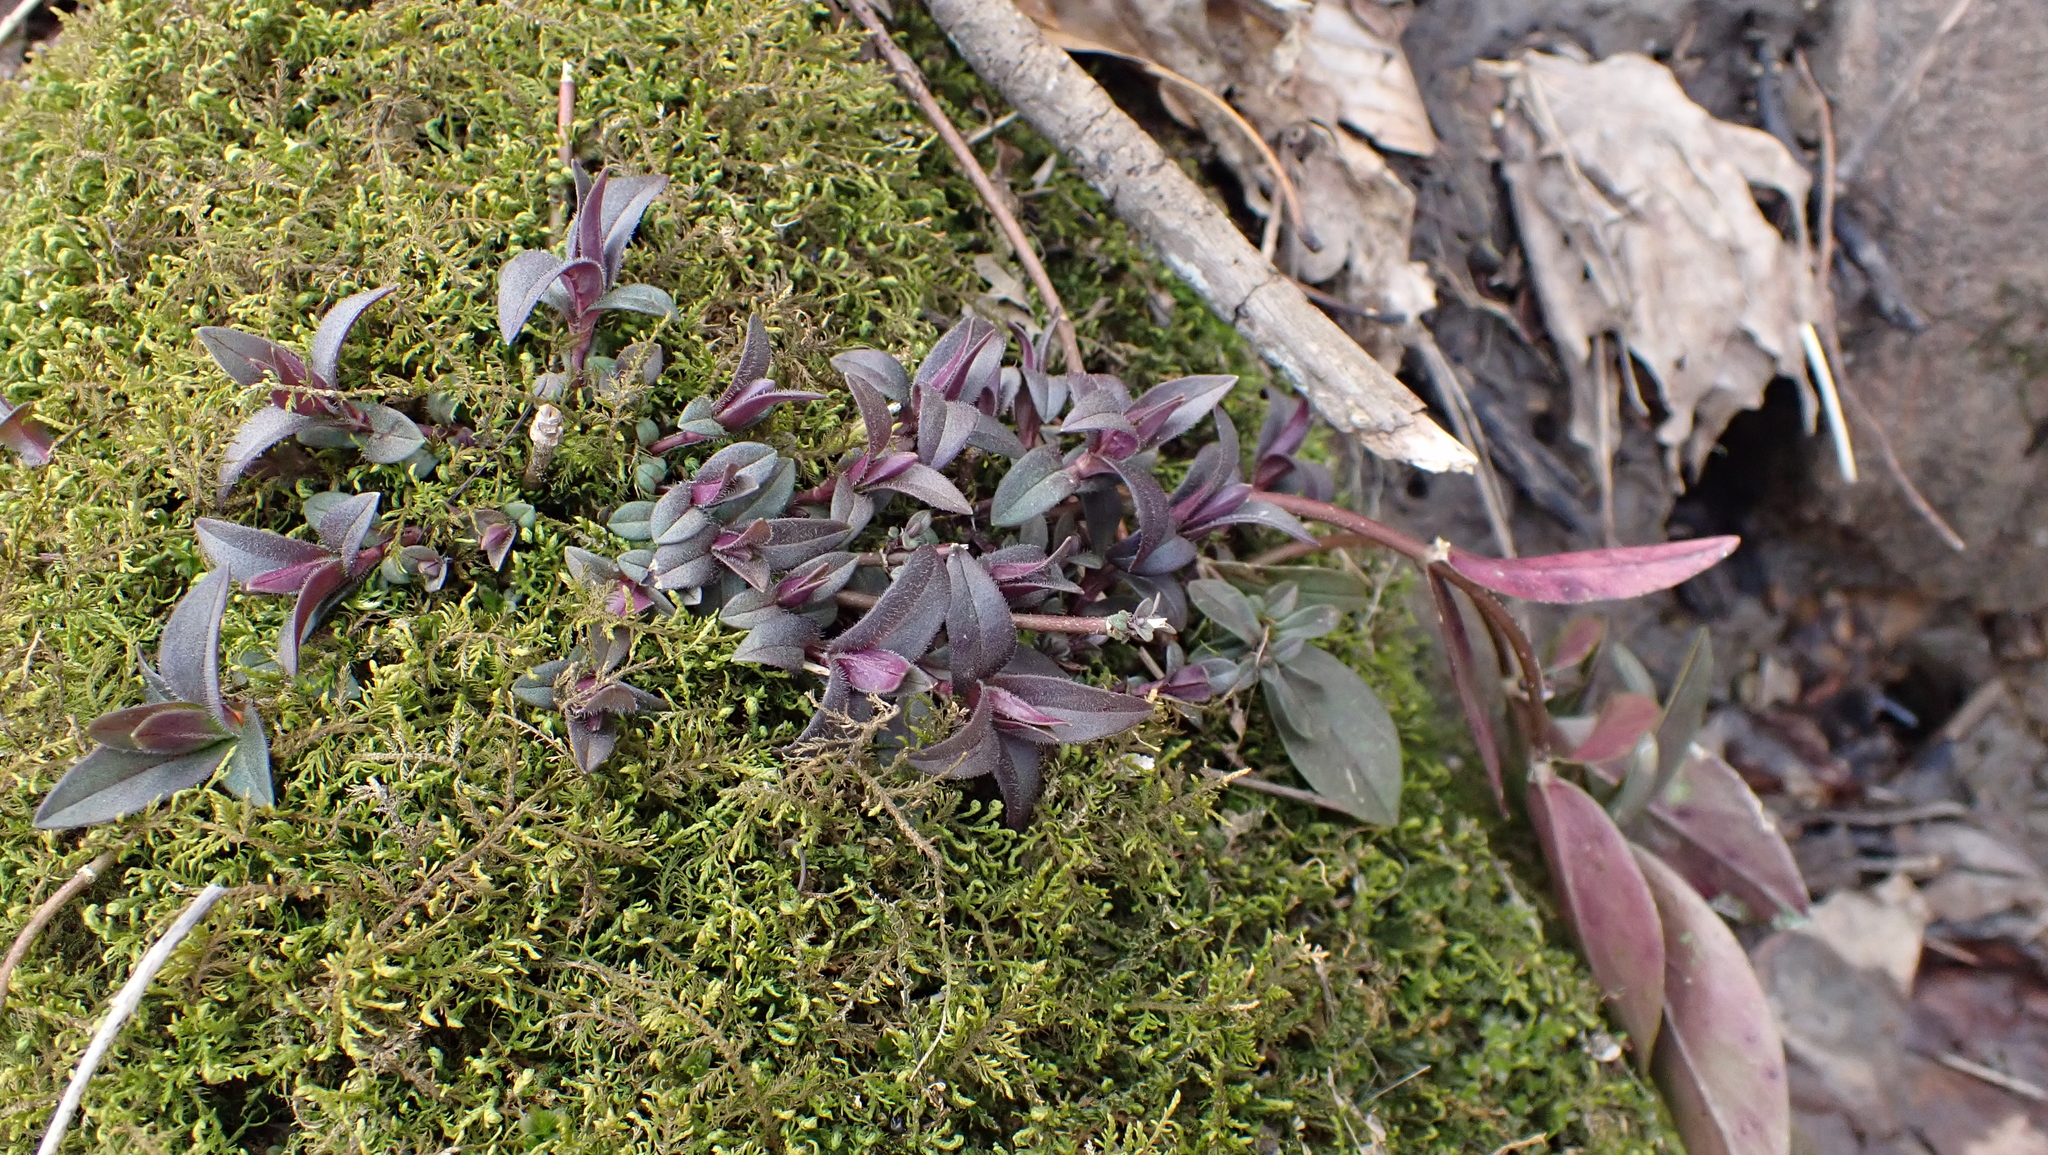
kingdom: Plantae
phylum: Tracheophyta
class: Magnoliopsida
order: Ericales
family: Polemoniaceae
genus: Phlox
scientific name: Phlox divaricata
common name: Blue phlox
